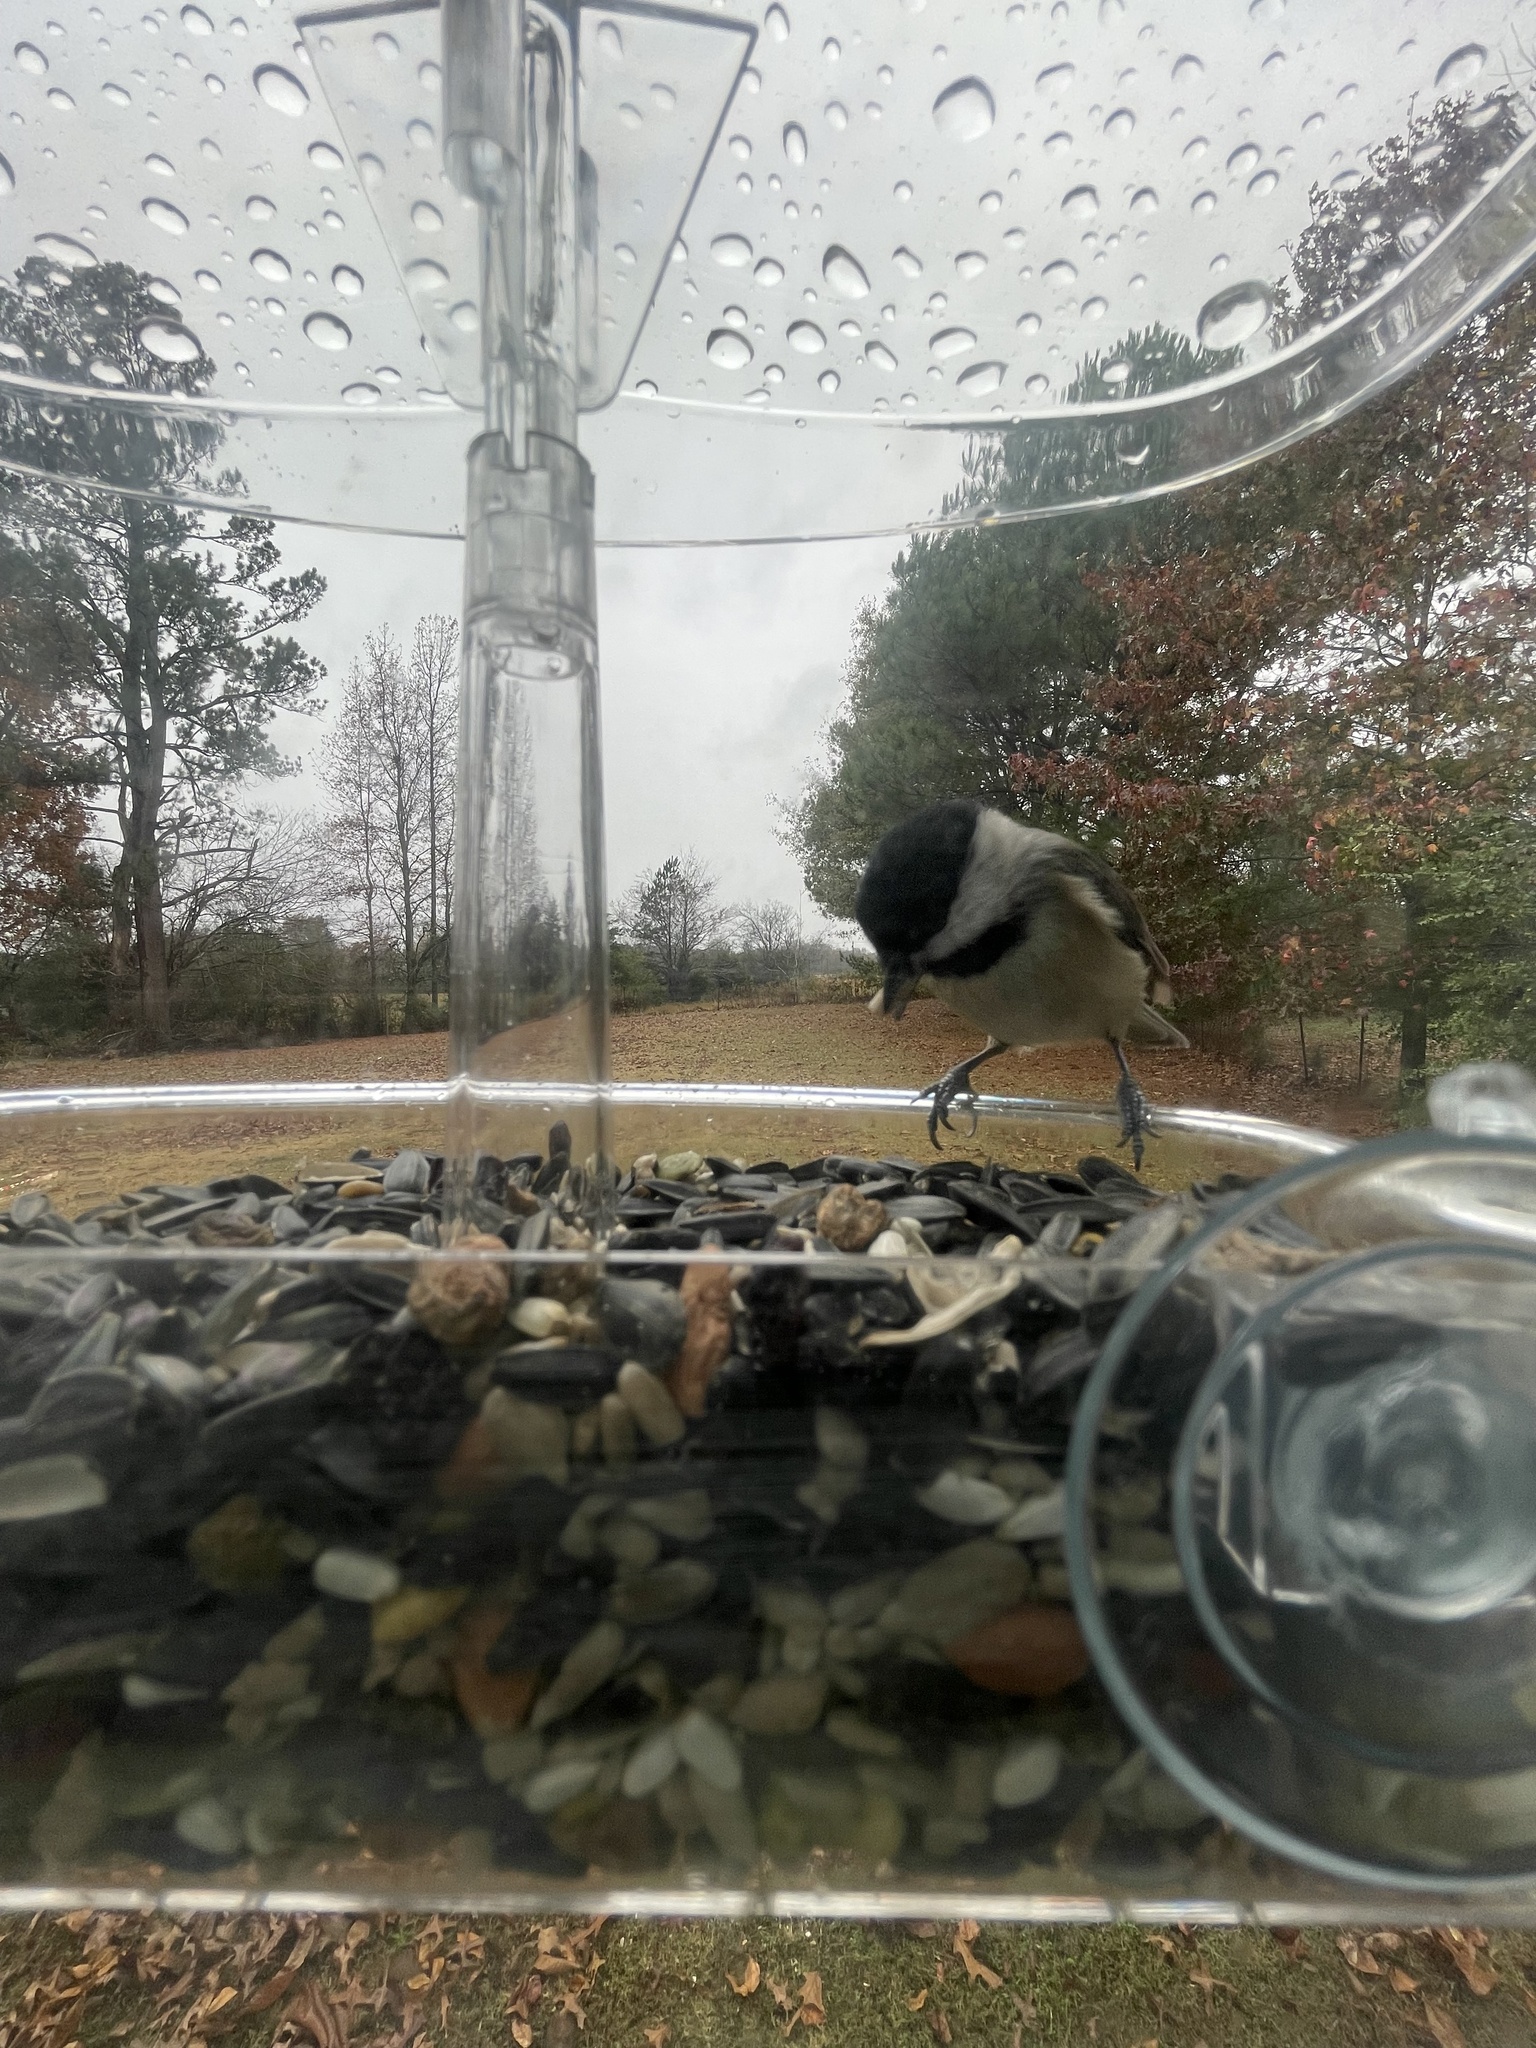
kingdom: Animalia
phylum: Chordata
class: Aves
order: Passeriformes
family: Paridae
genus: Poecile
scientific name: Poecile carolinensis
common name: Carolina chickadee
